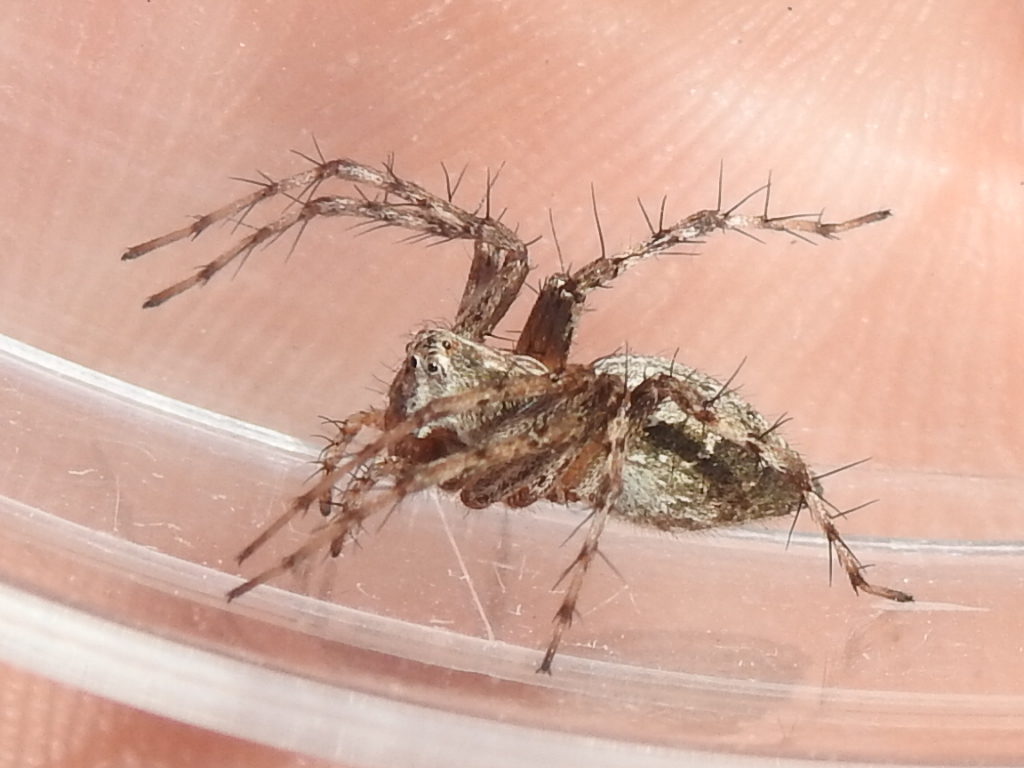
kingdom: Animalia
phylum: Arthropoda
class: Arachnida
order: Araneae
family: Oxyopidae
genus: Oxyopes
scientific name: Oxyopes scalaris
